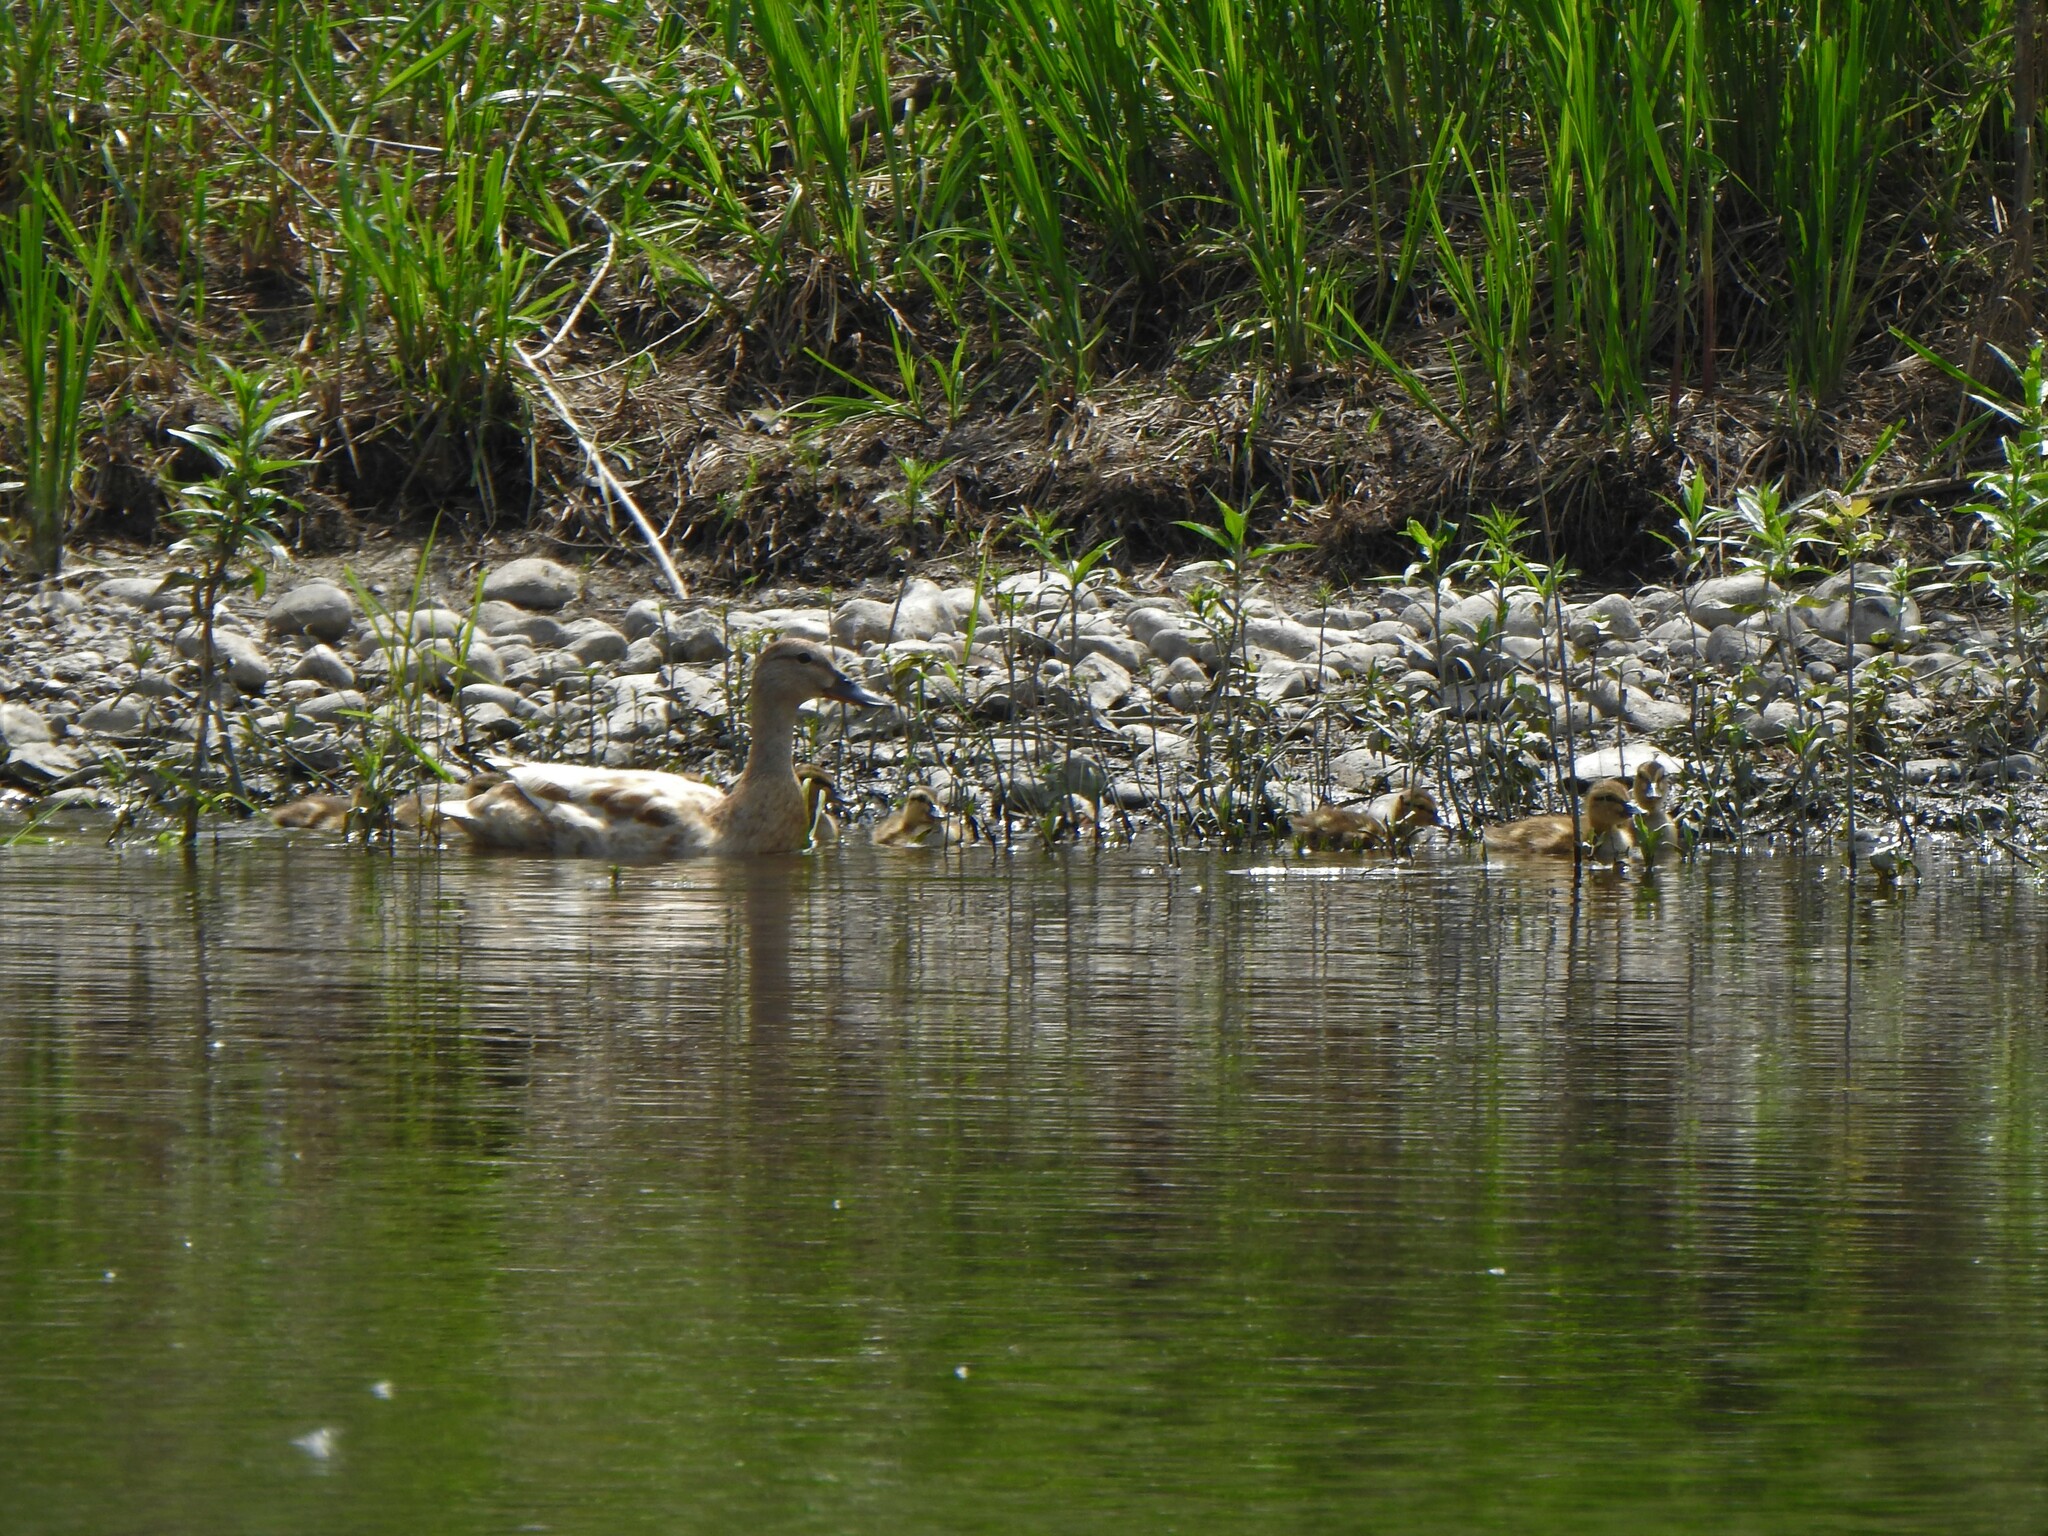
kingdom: Animalia
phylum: Chordata
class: Aves
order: Anseriformes
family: Anatidae
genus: Anas
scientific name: Anas platyrhynchos
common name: Mallard
